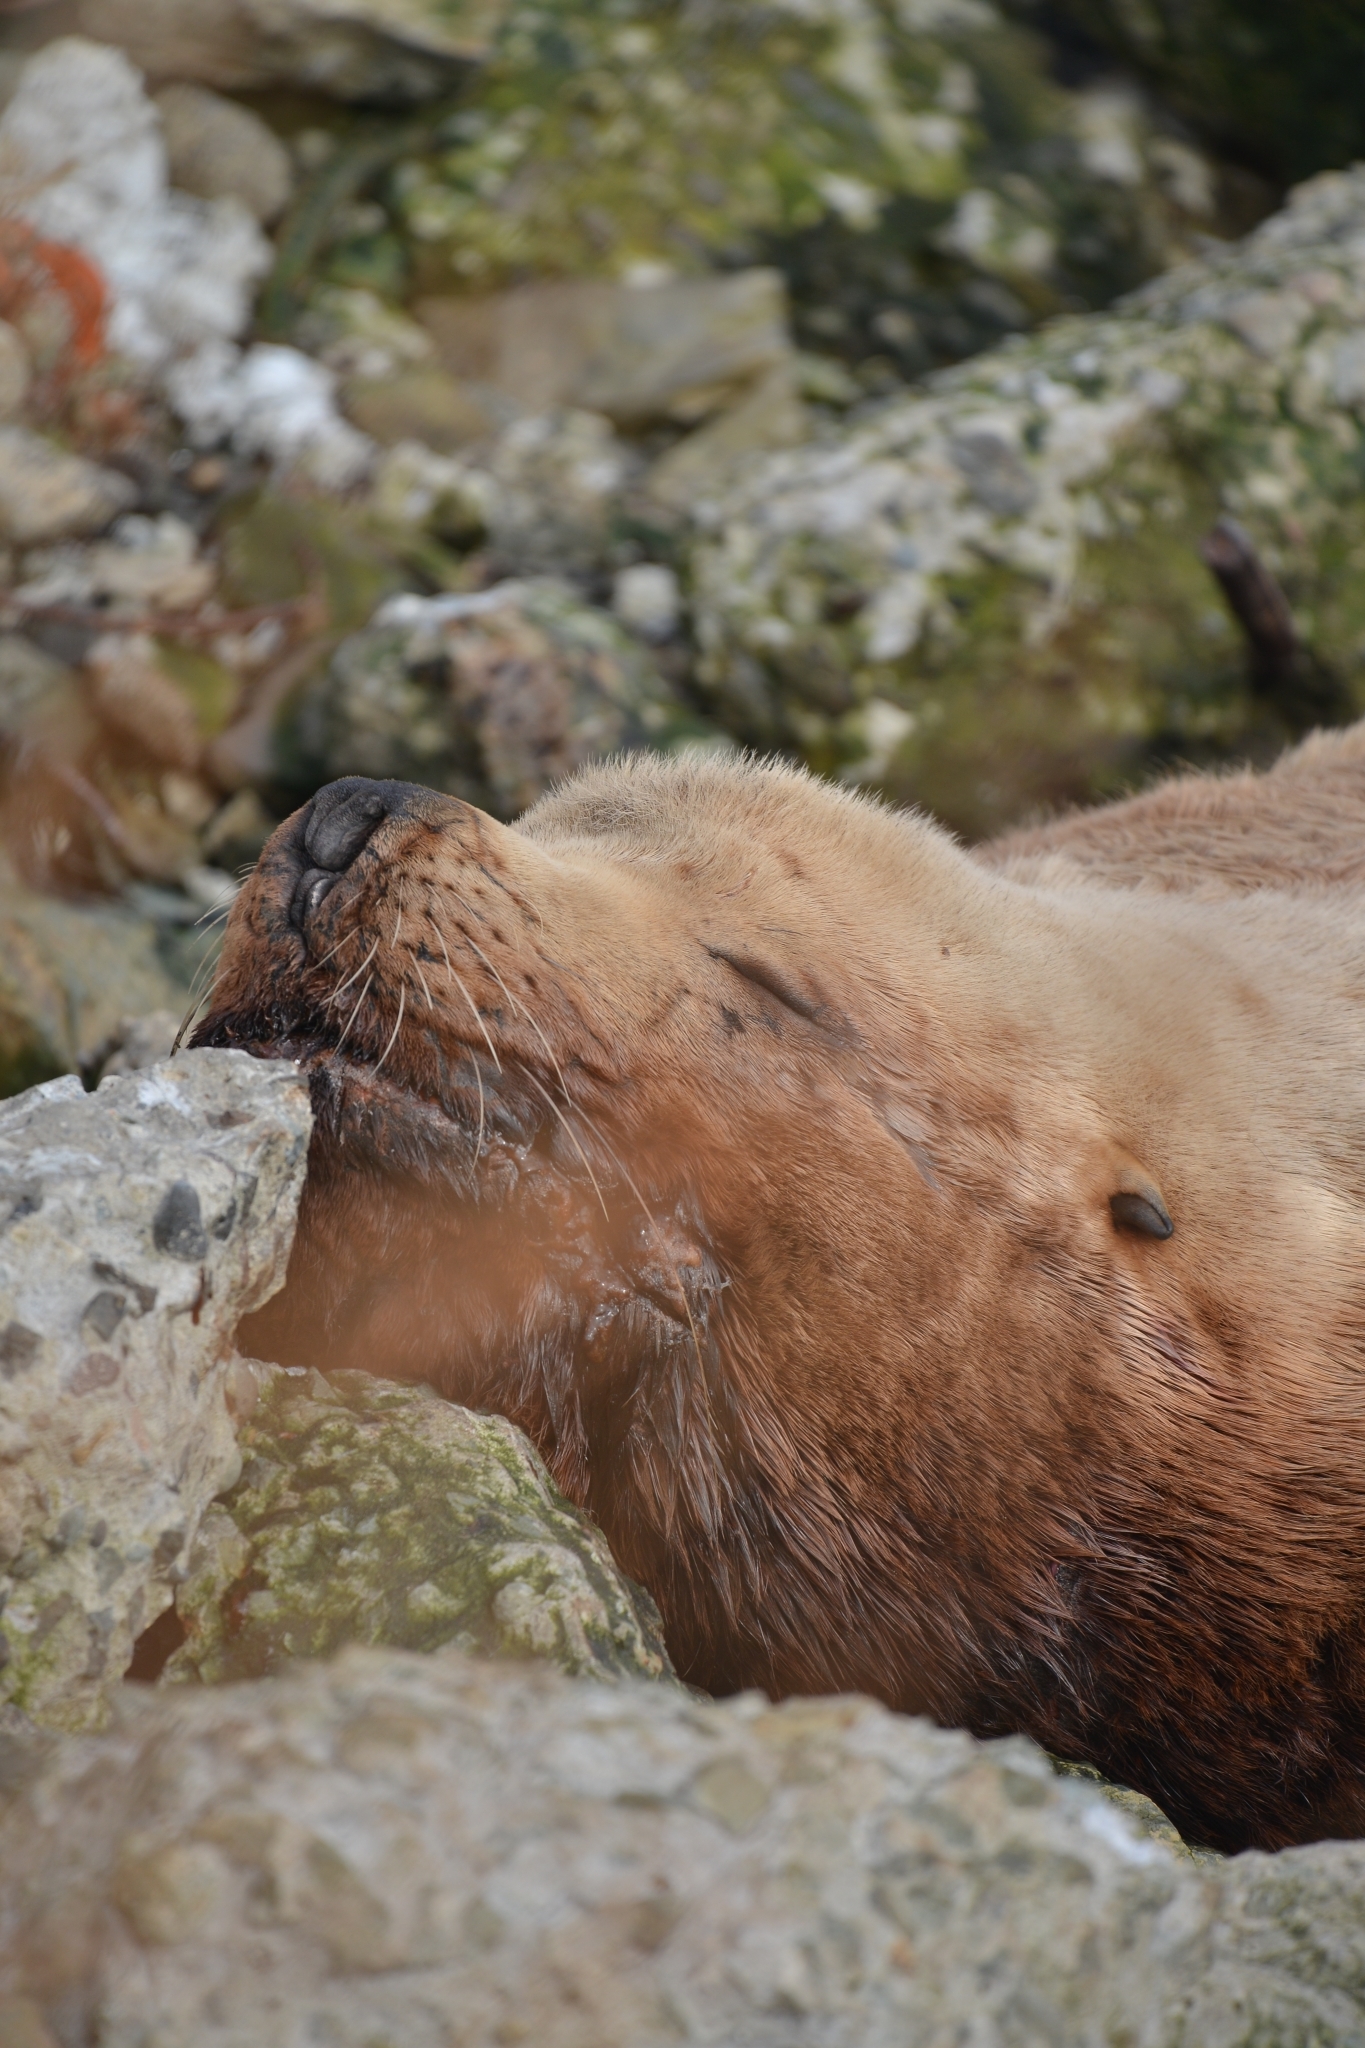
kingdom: Animalia
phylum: Chordata
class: Mammalia
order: Carnivora
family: Otariidae
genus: Eumetopias
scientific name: Eumetopias jubatus
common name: Steller sea lion
